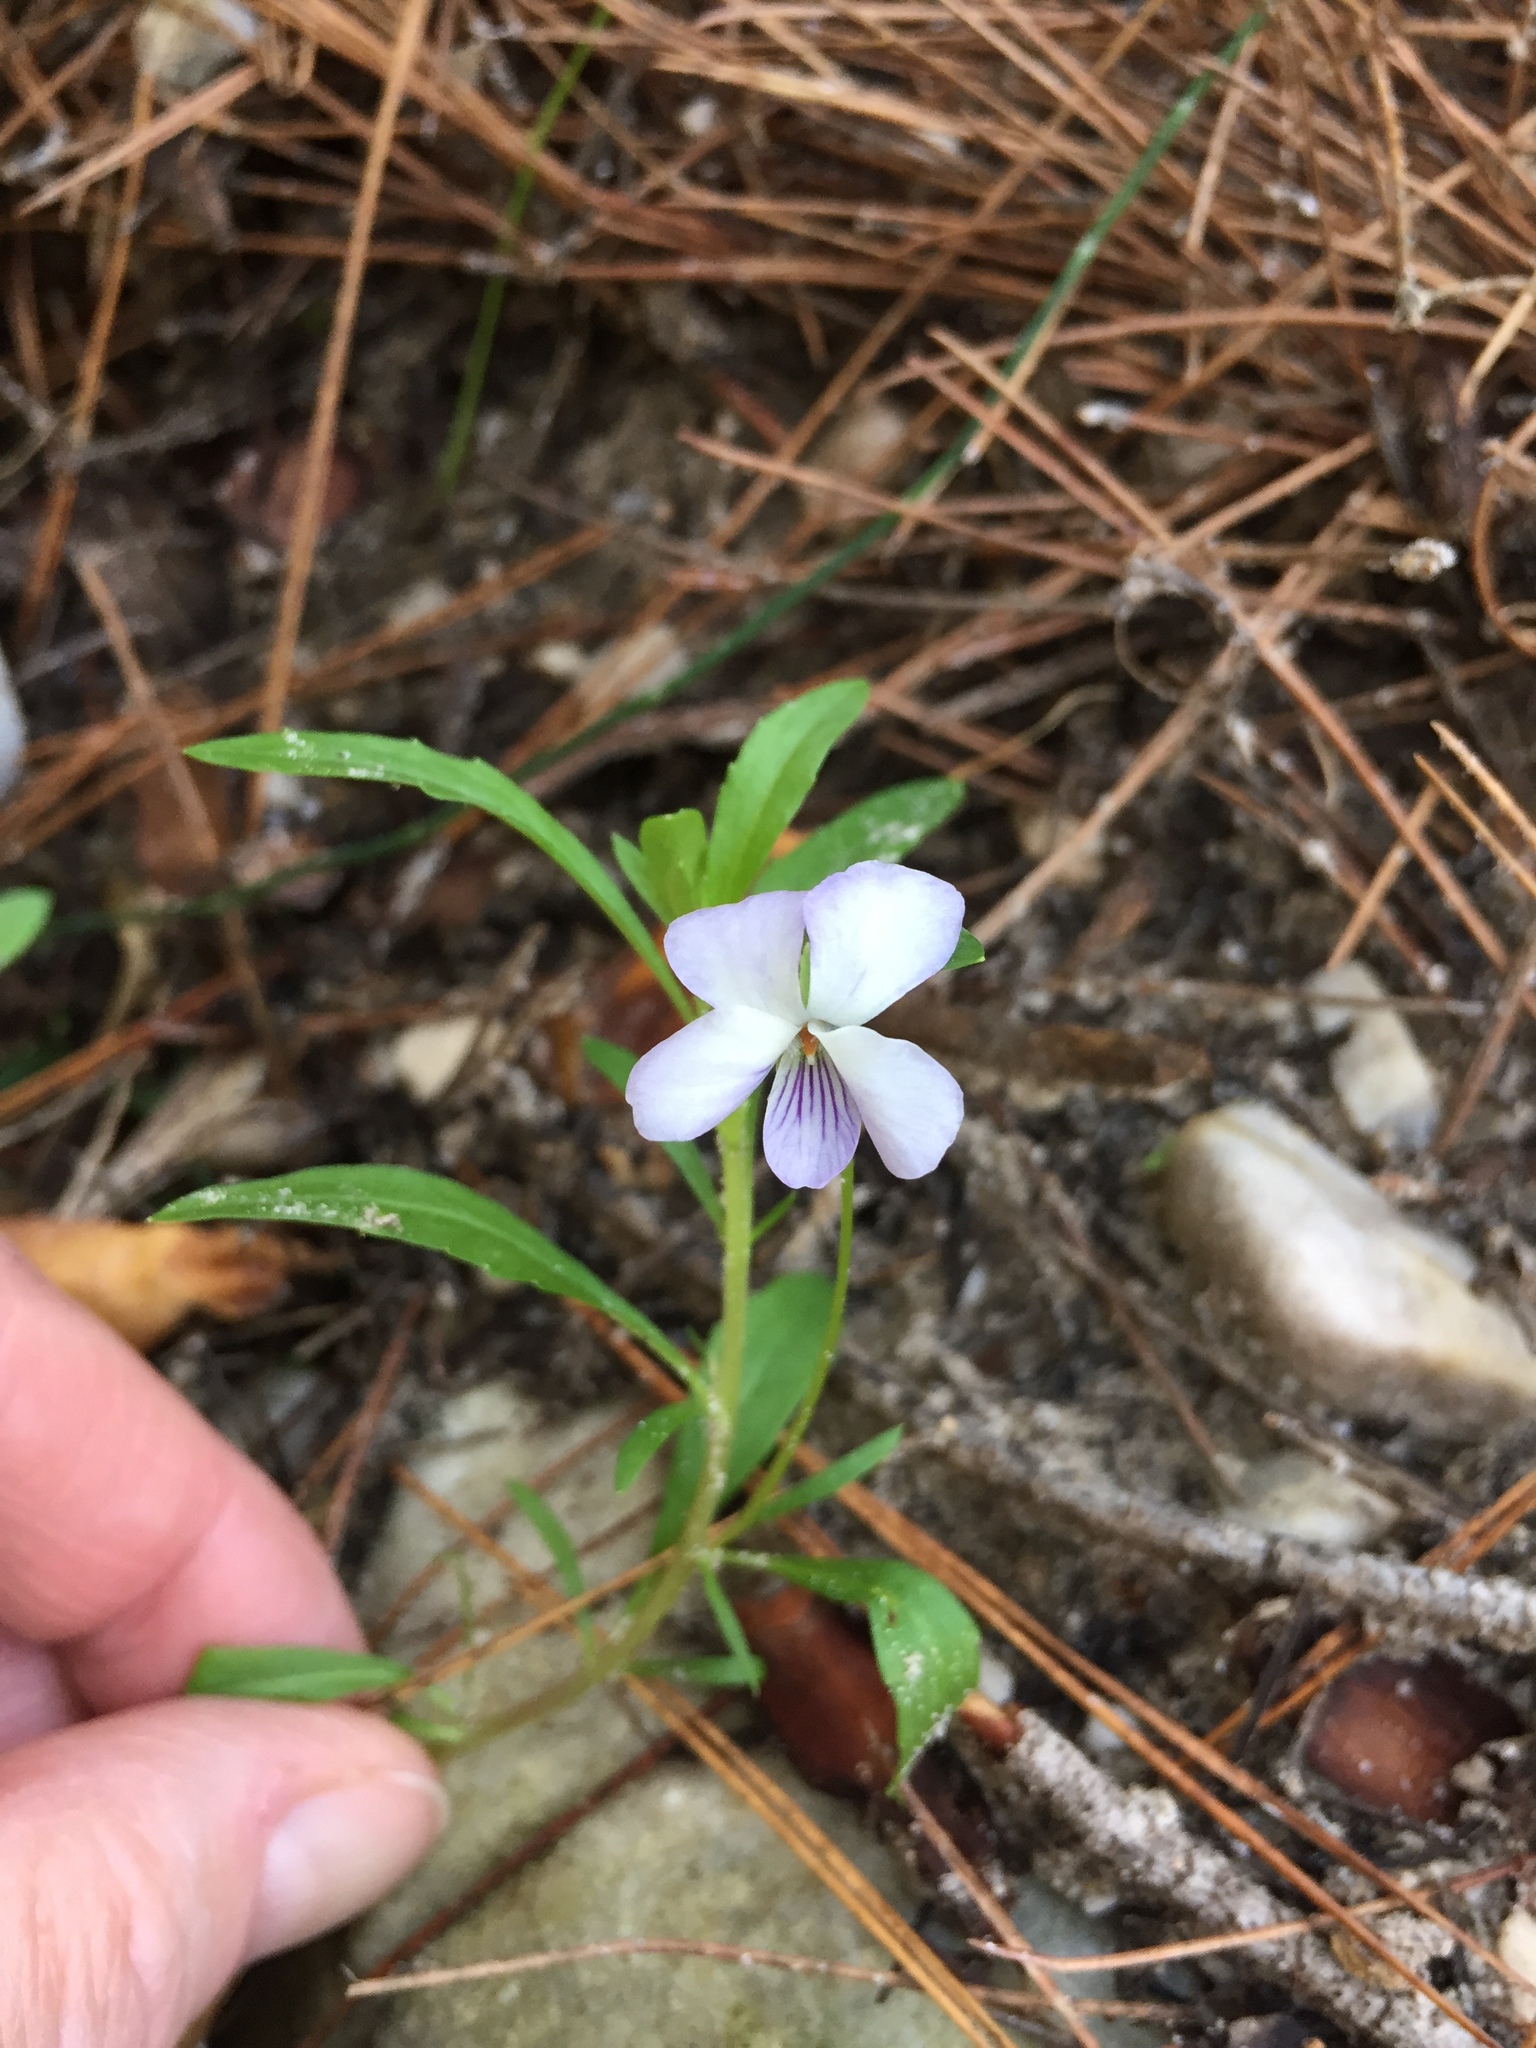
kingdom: Plantae
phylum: Tracheophyta
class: Magnoliopsida
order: Malpighiales
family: Violaceae
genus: Viola
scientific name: Viola arborescens
